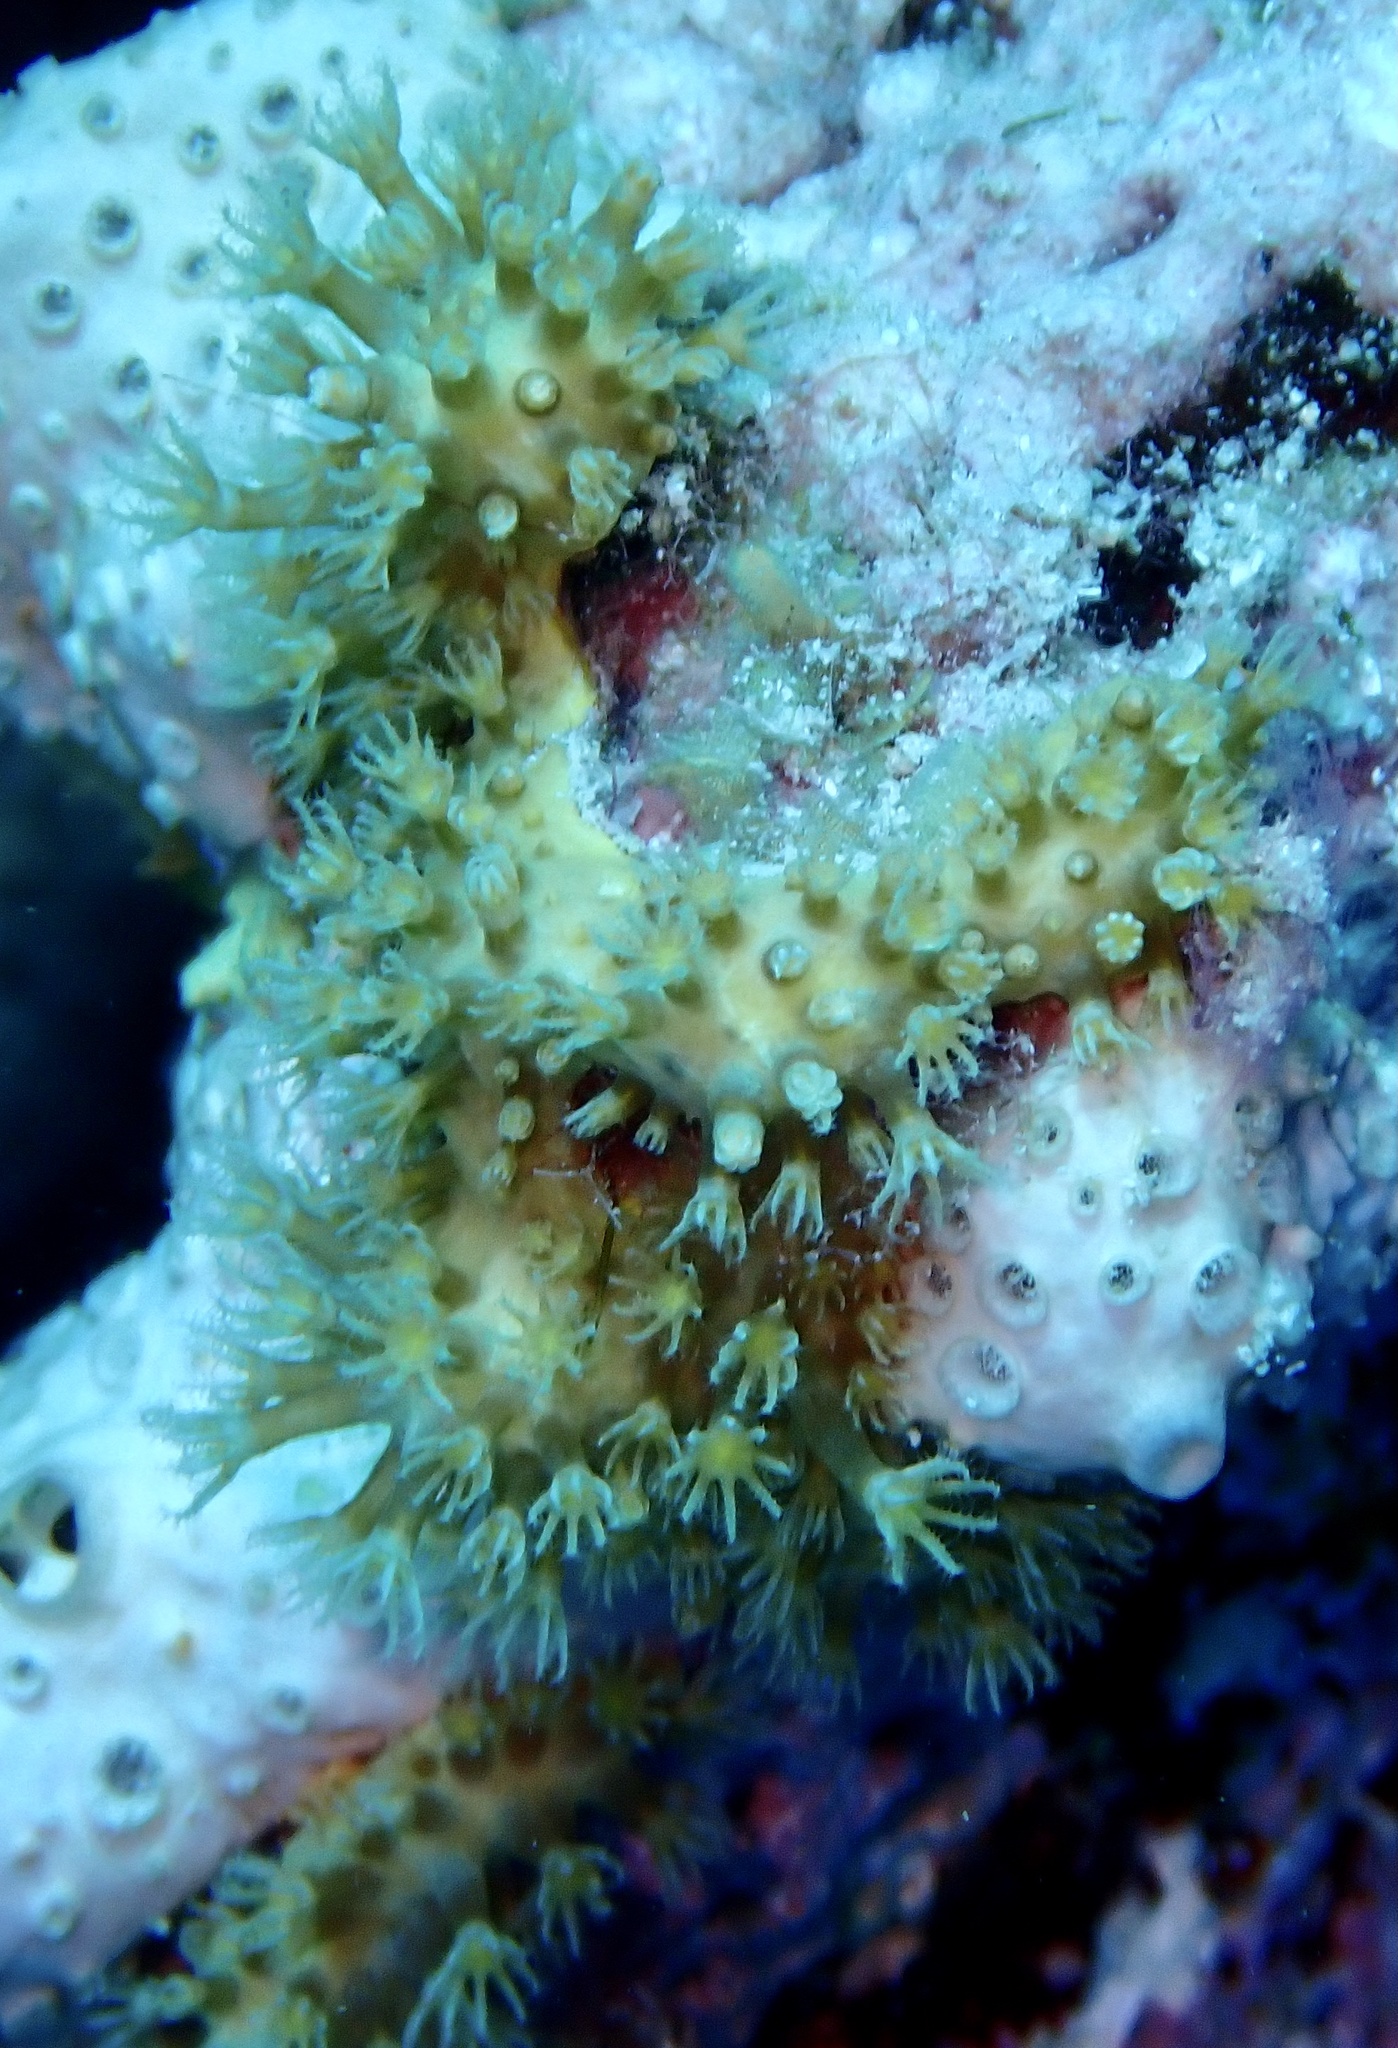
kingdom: Animalia
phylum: Cnidaria
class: Anthozoa
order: Malacalcyonacea
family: Lemnaliadae
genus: Rhytisma
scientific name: Rhytisma fulvum
